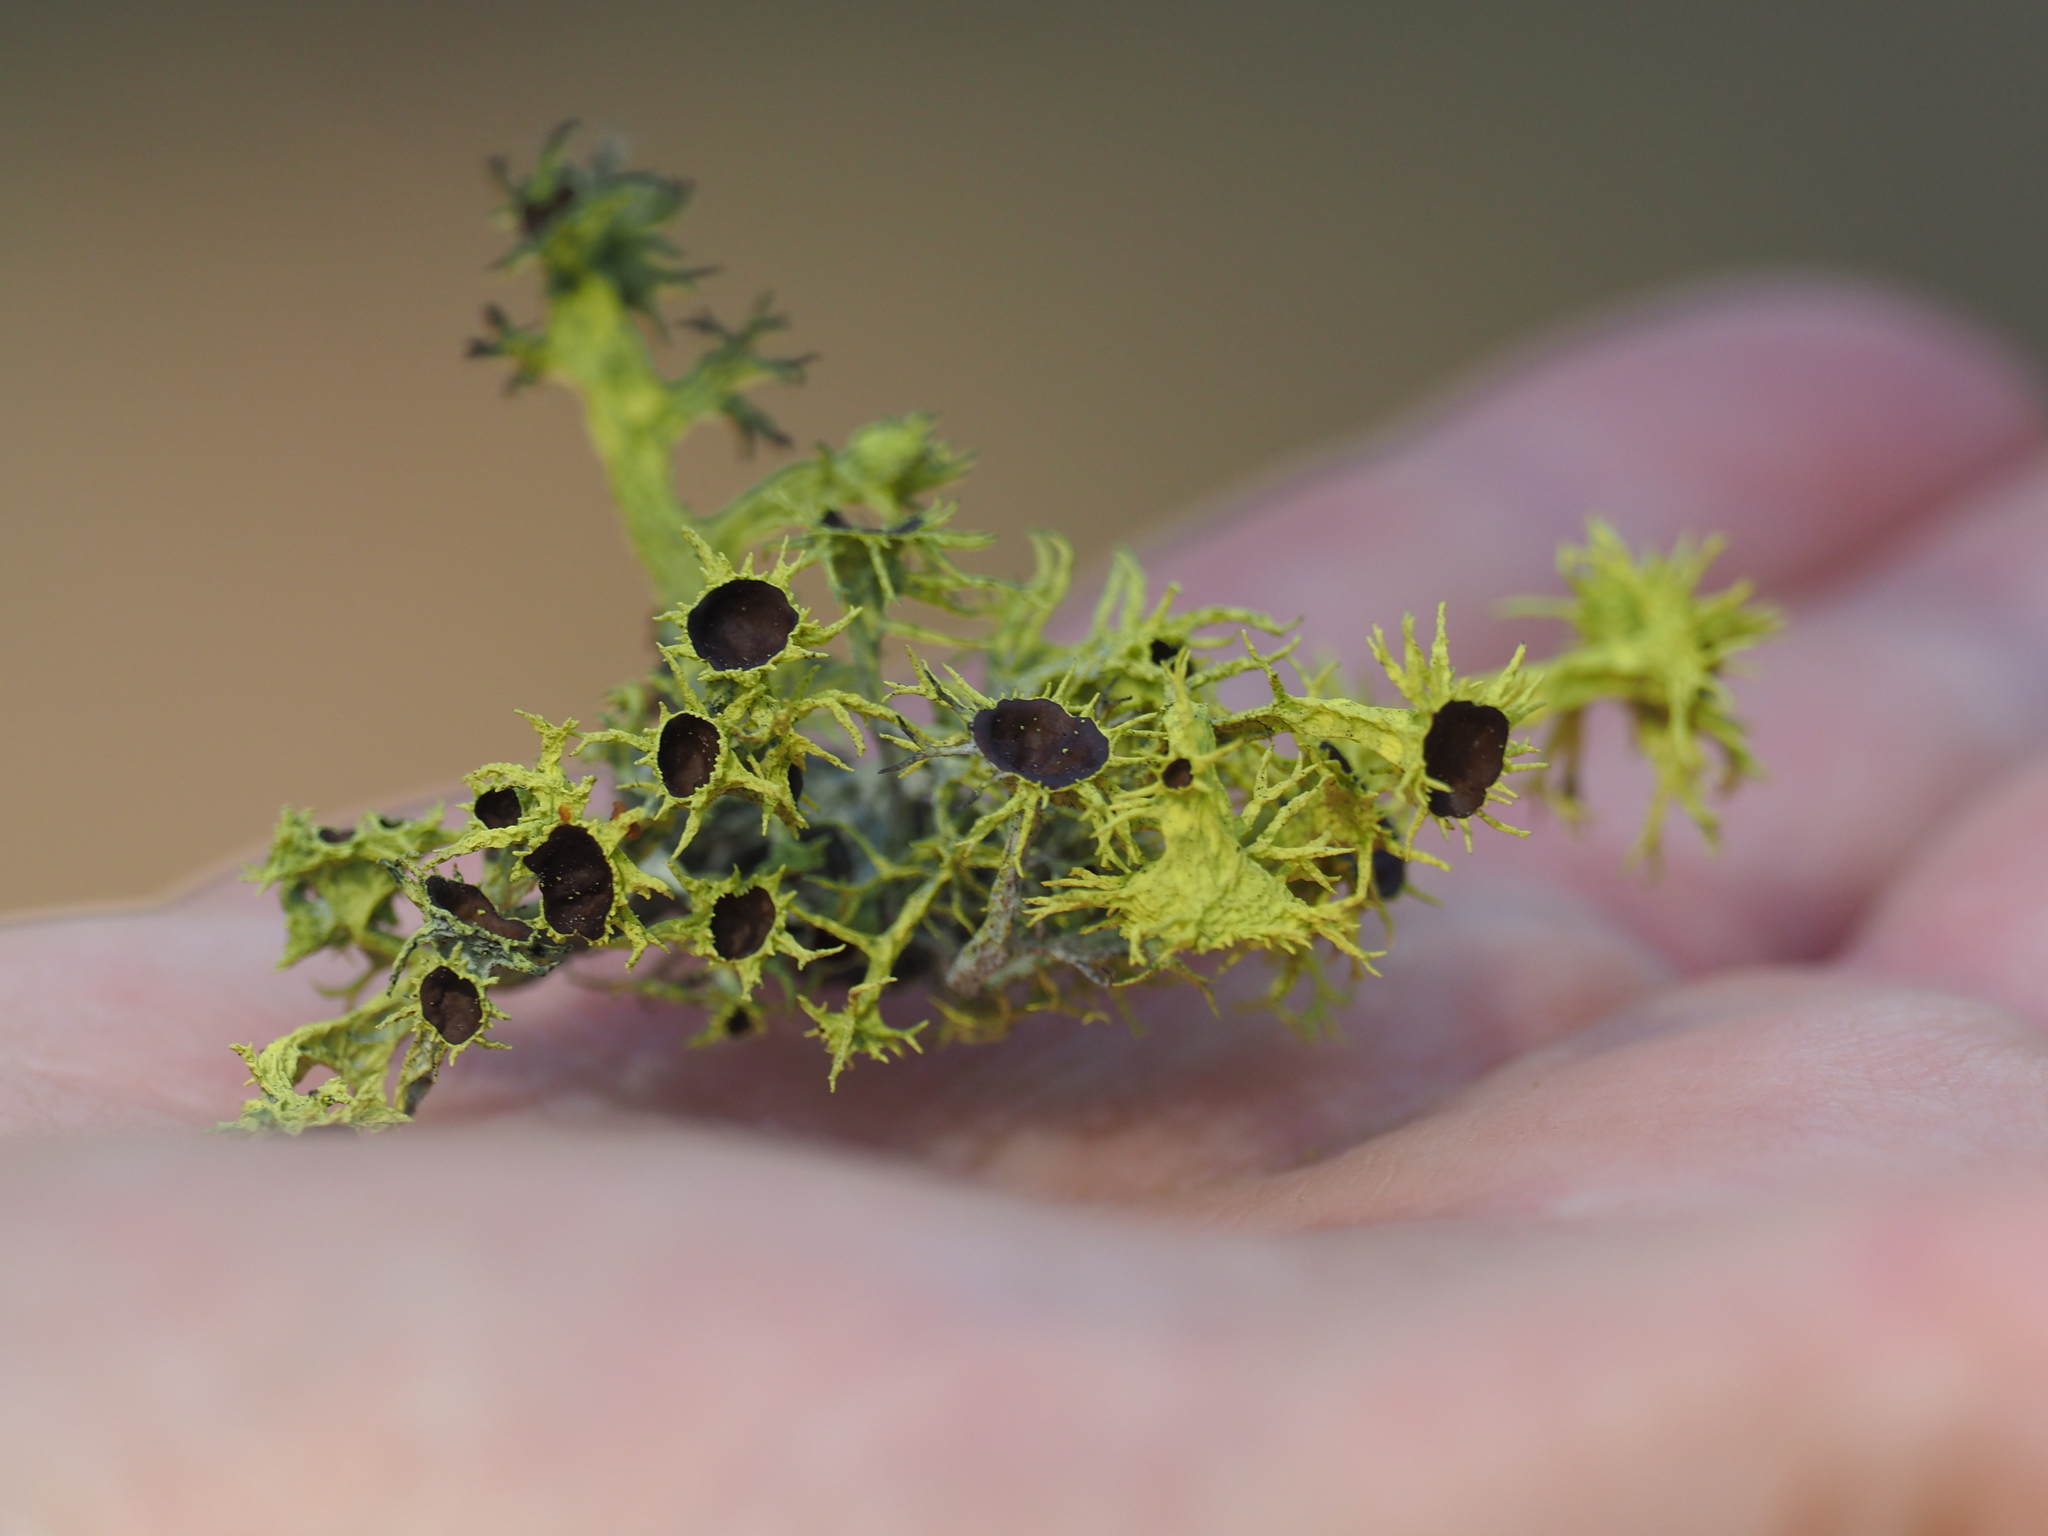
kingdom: Fungi
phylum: Ascomycota
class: Lecanoromycetes
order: Lecanorales
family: Parmeliaceae
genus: Letharia
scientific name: Letharia columbiana
